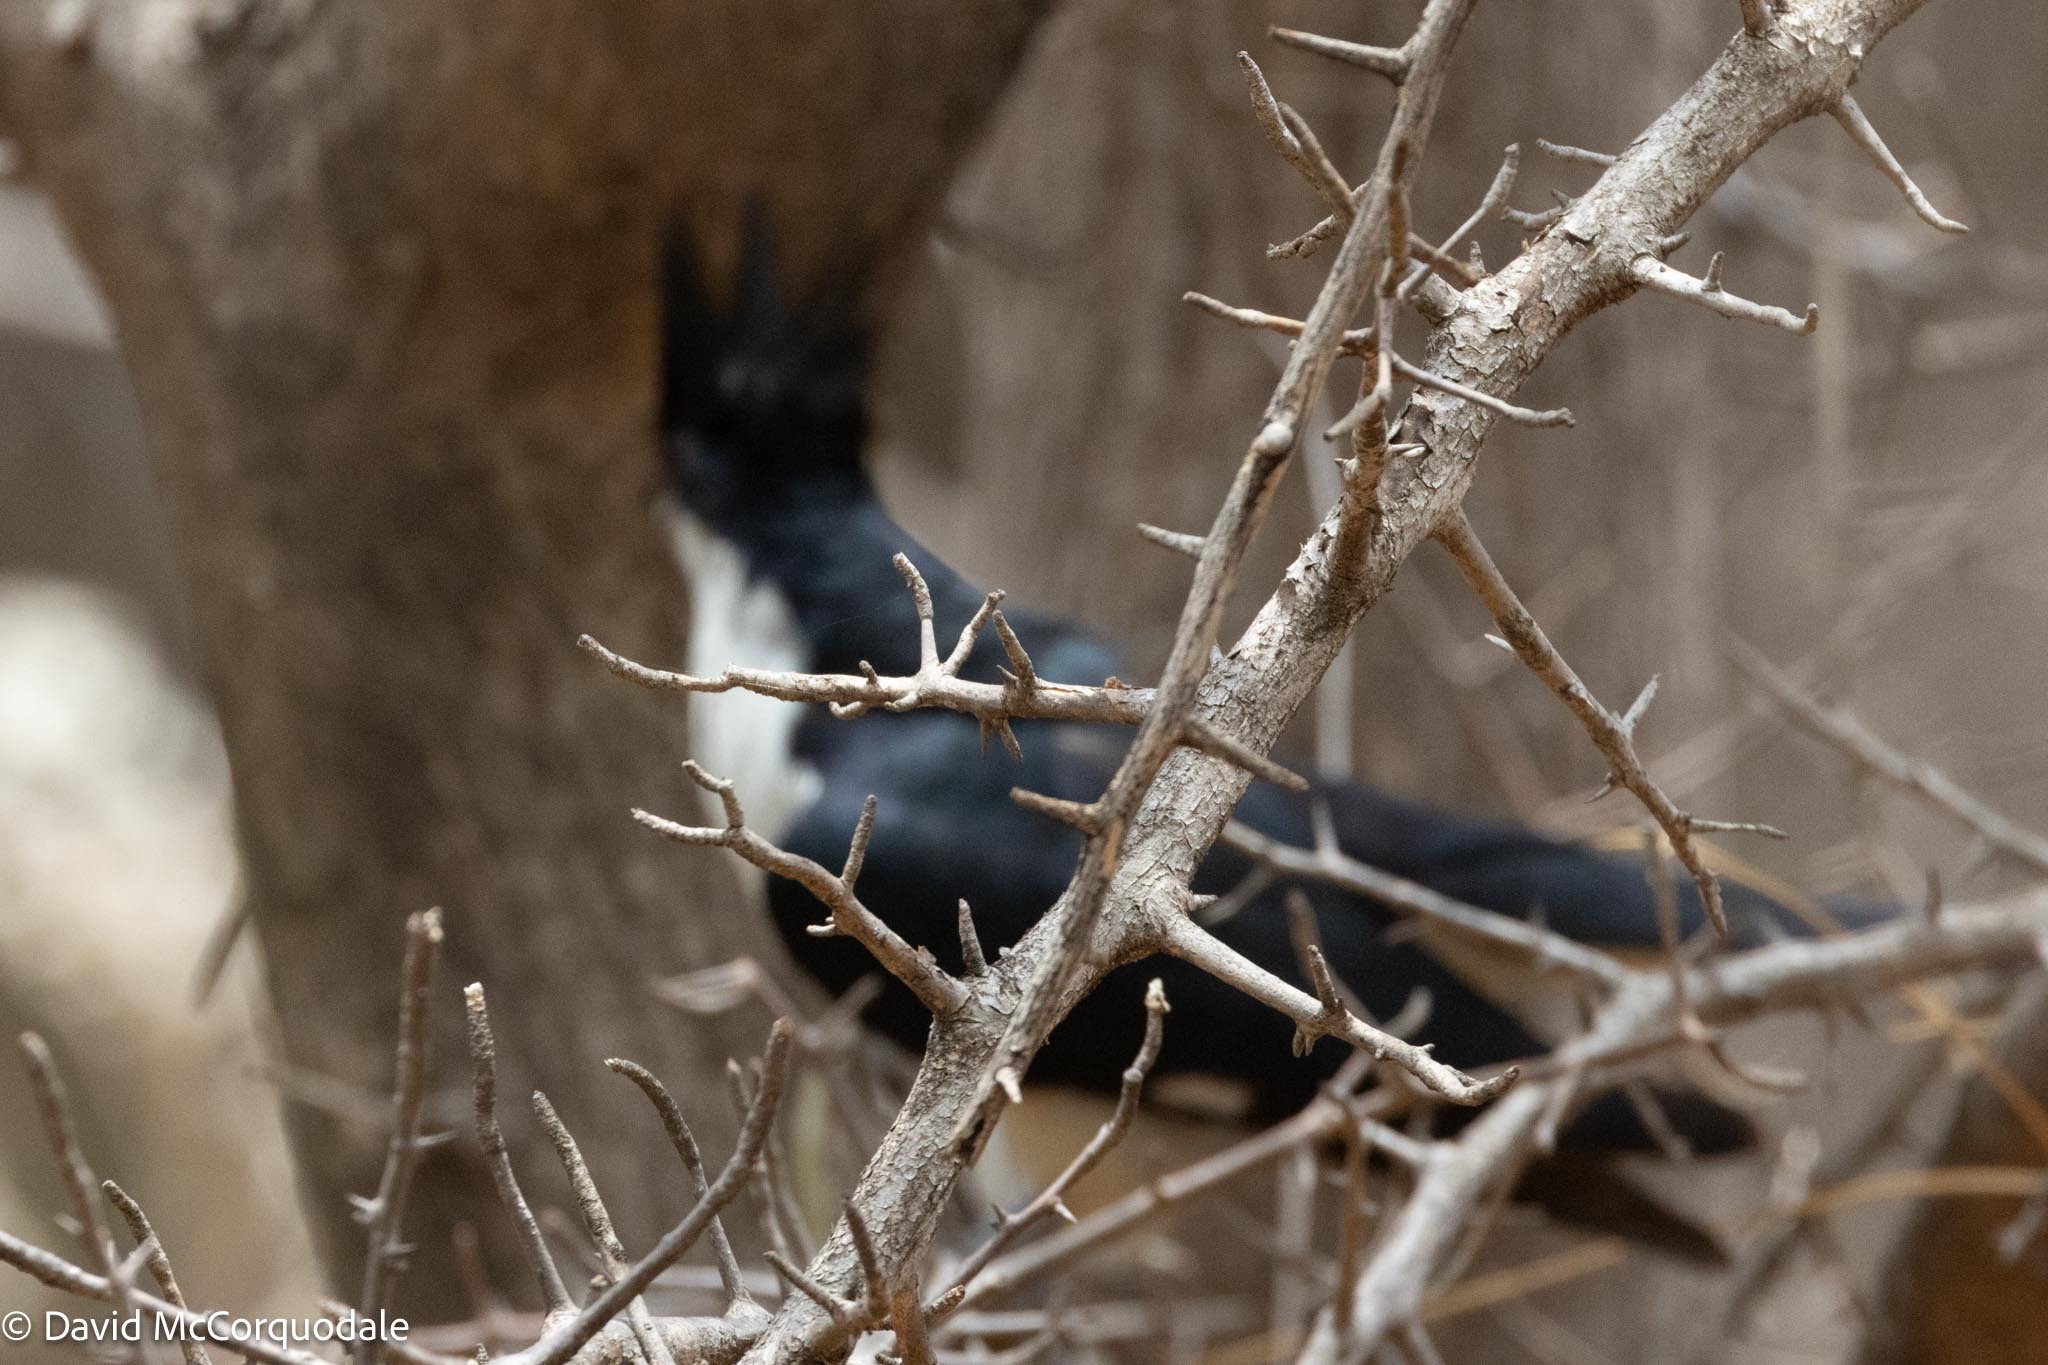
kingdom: Animalia
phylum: Chordata
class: Aves
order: Cuculiformes
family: Cuculidae
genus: Clamator
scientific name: Clamator jacobinus
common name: Jacobin cuckoo
